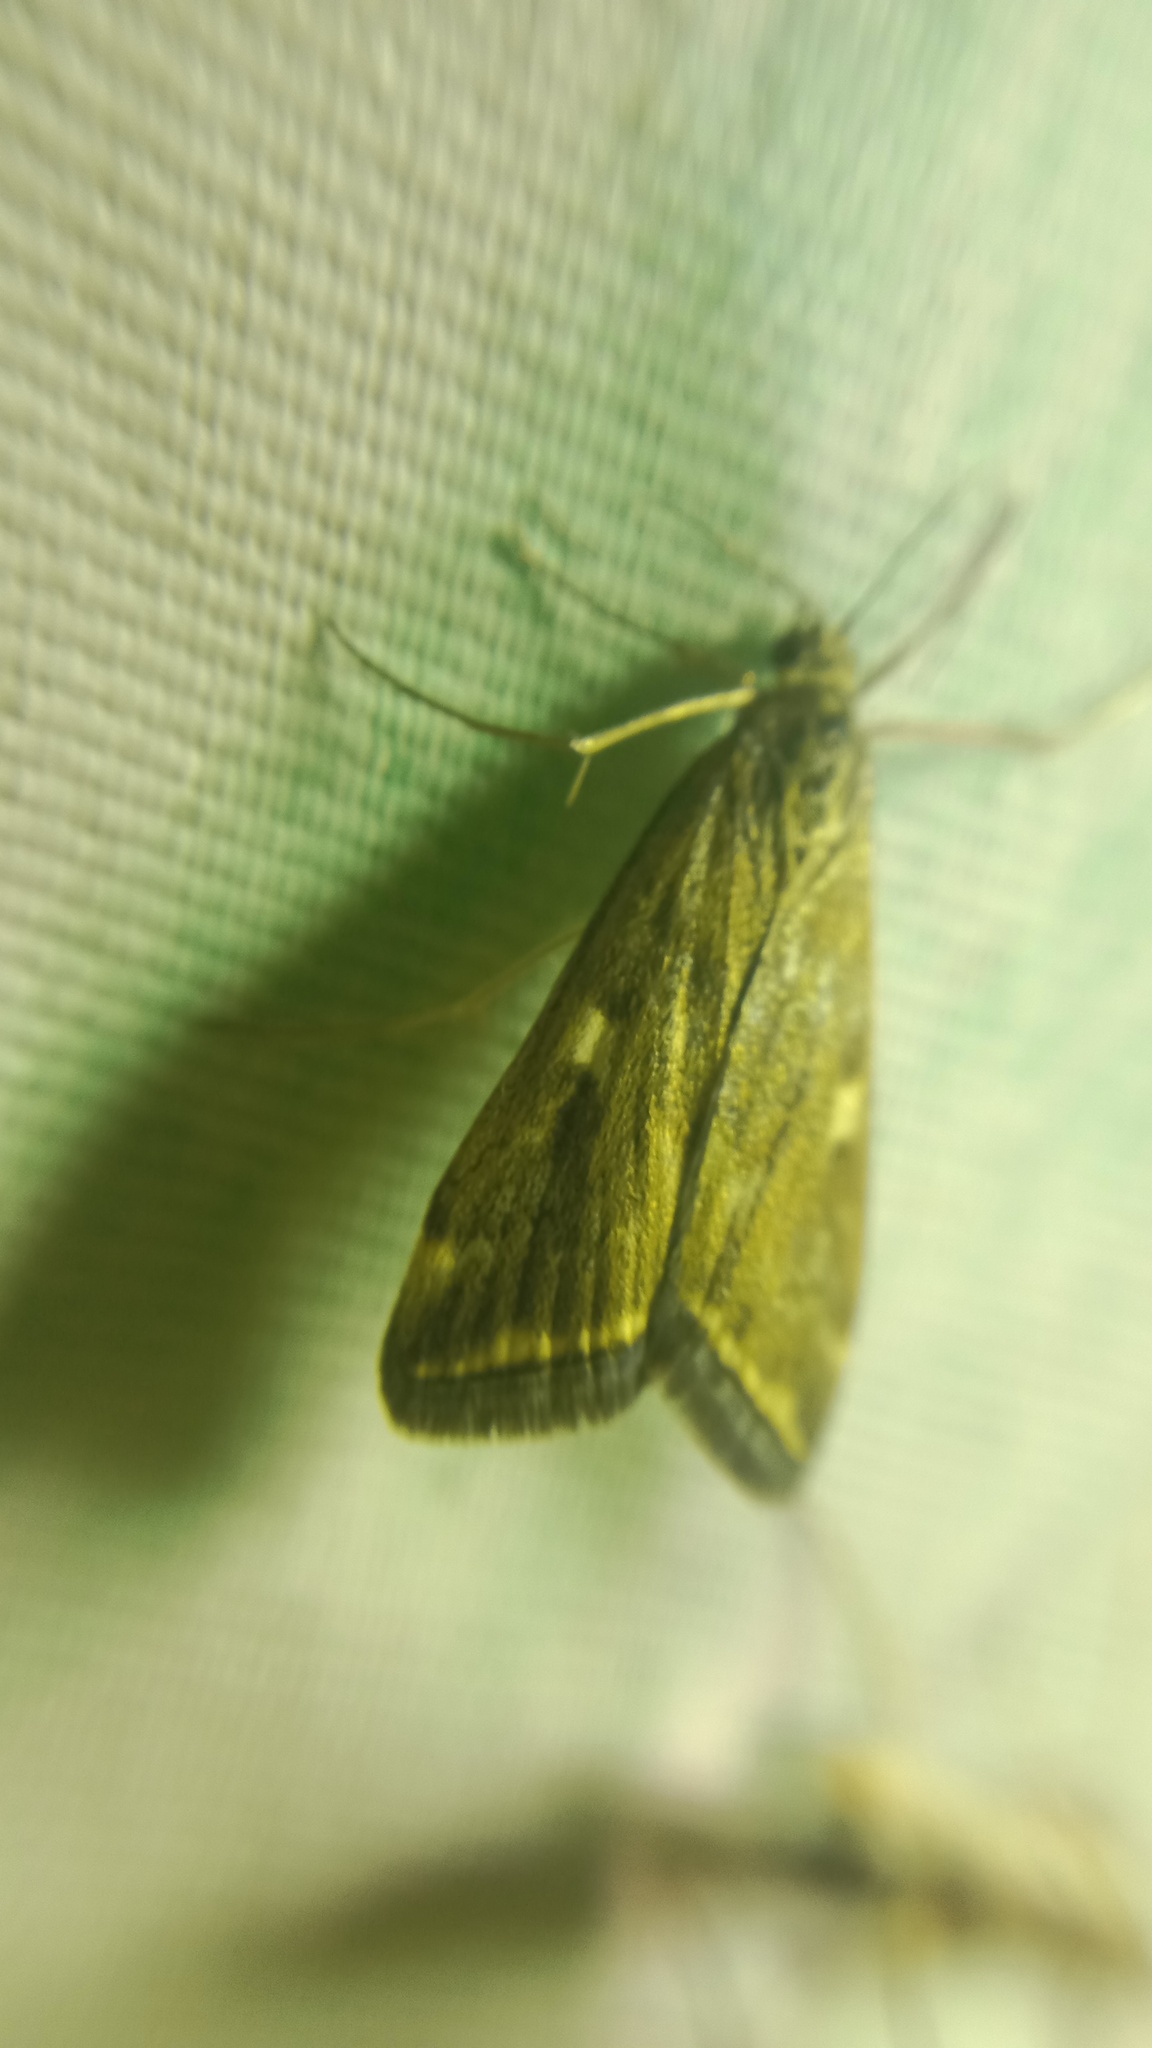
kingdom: Animalia
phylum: Arthropoda
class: Insecta
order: Lepidoptera
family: Crambidae
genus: Loxostege
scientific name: Loxostege sticticalis
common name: Crambid moth
